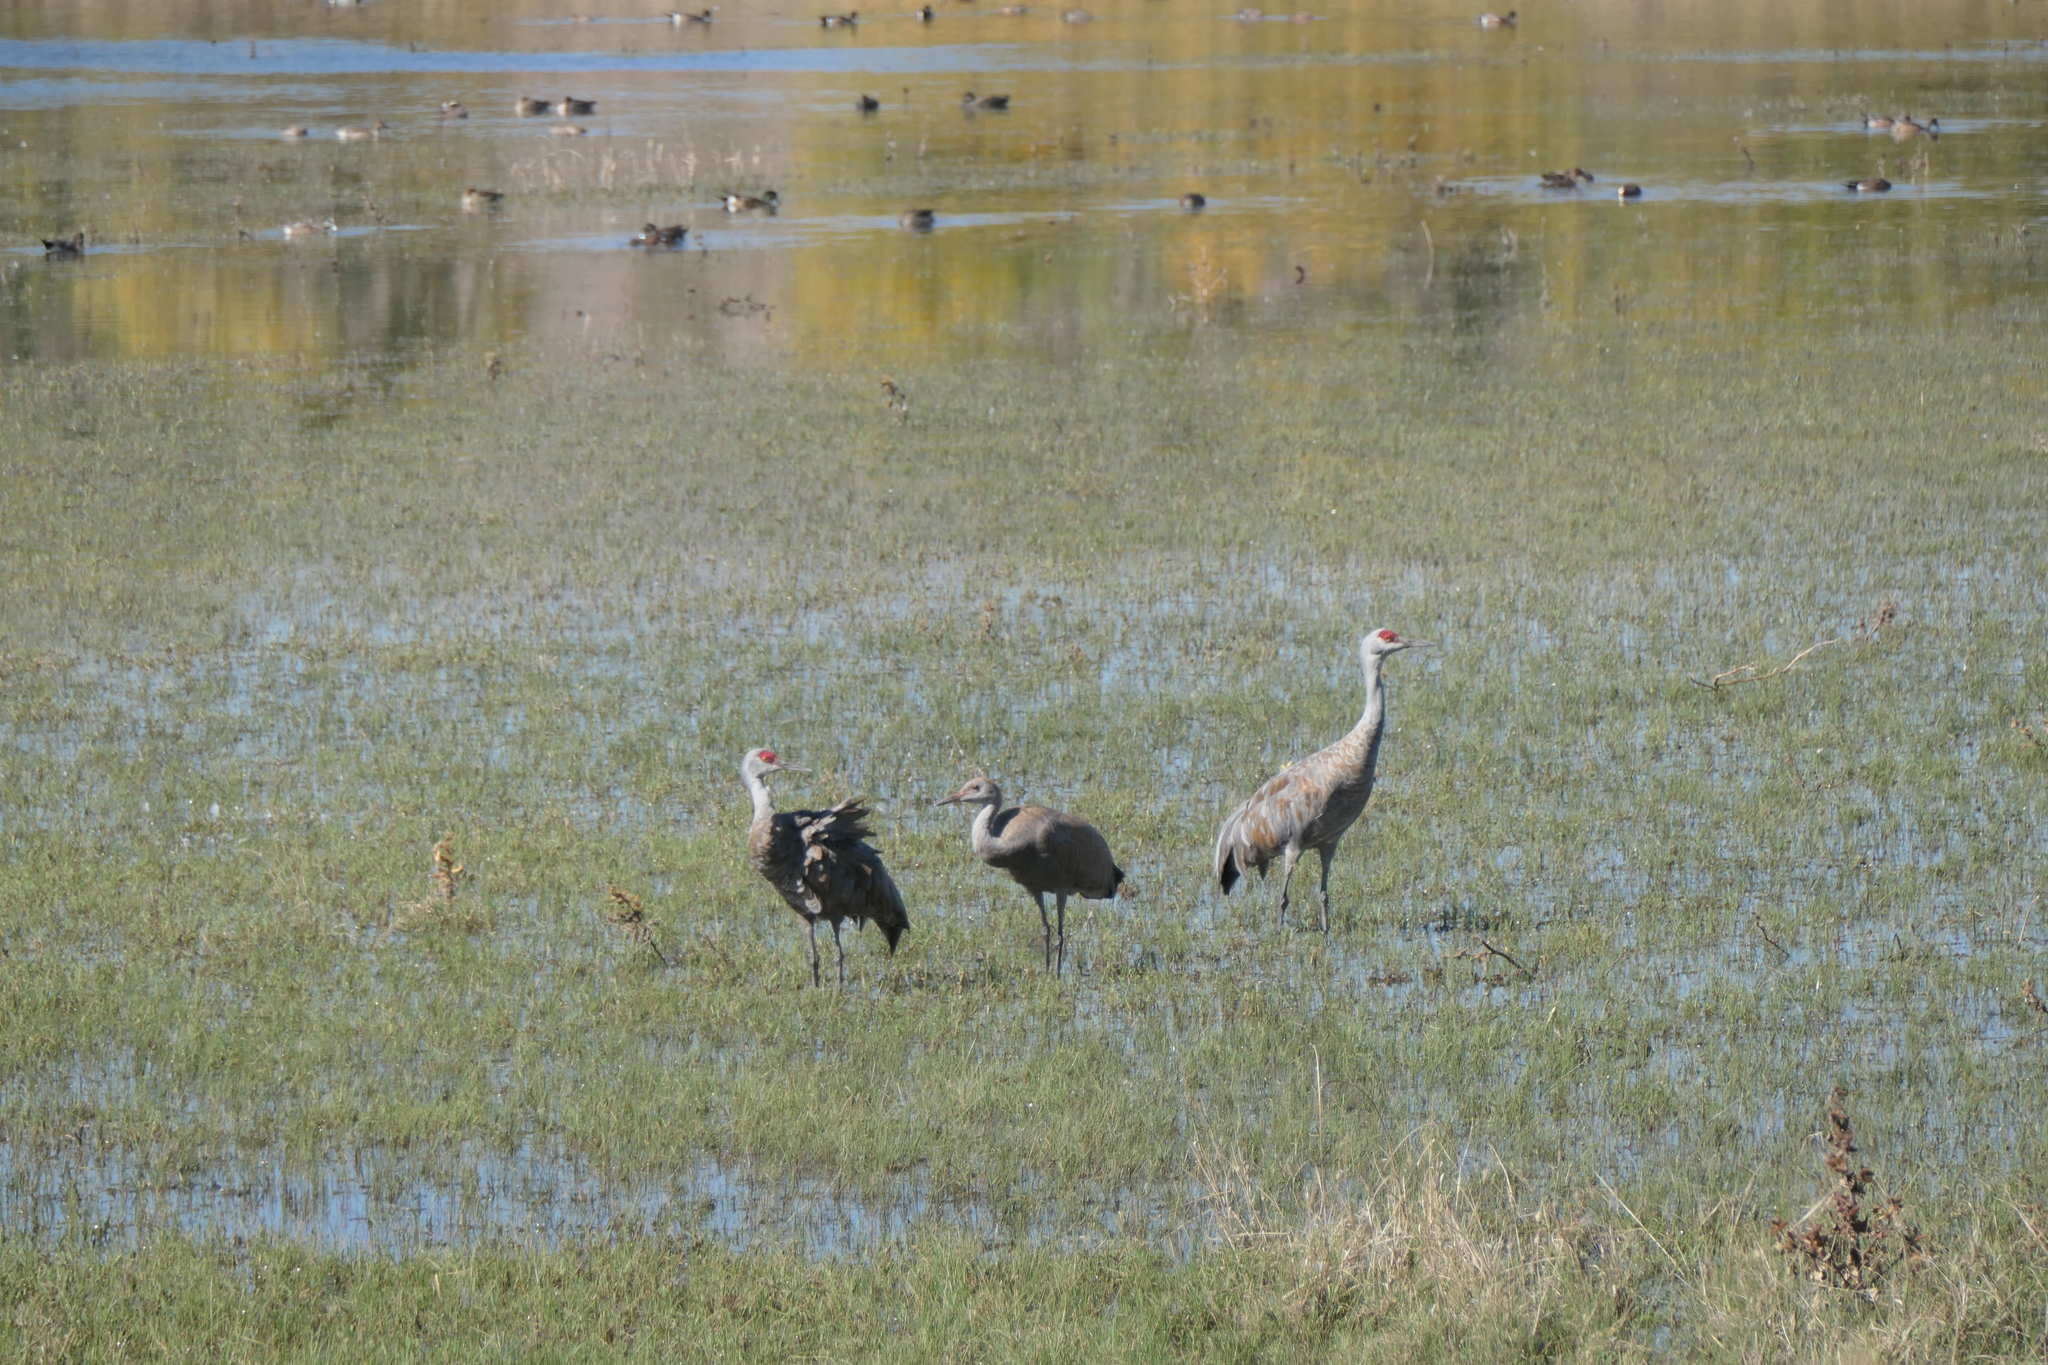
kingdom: Animalia
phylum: Chordata
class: Aves
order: Gruiformes
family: Gruidae
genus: Grus
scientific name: Grus canadensis
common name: Sandhill crane
